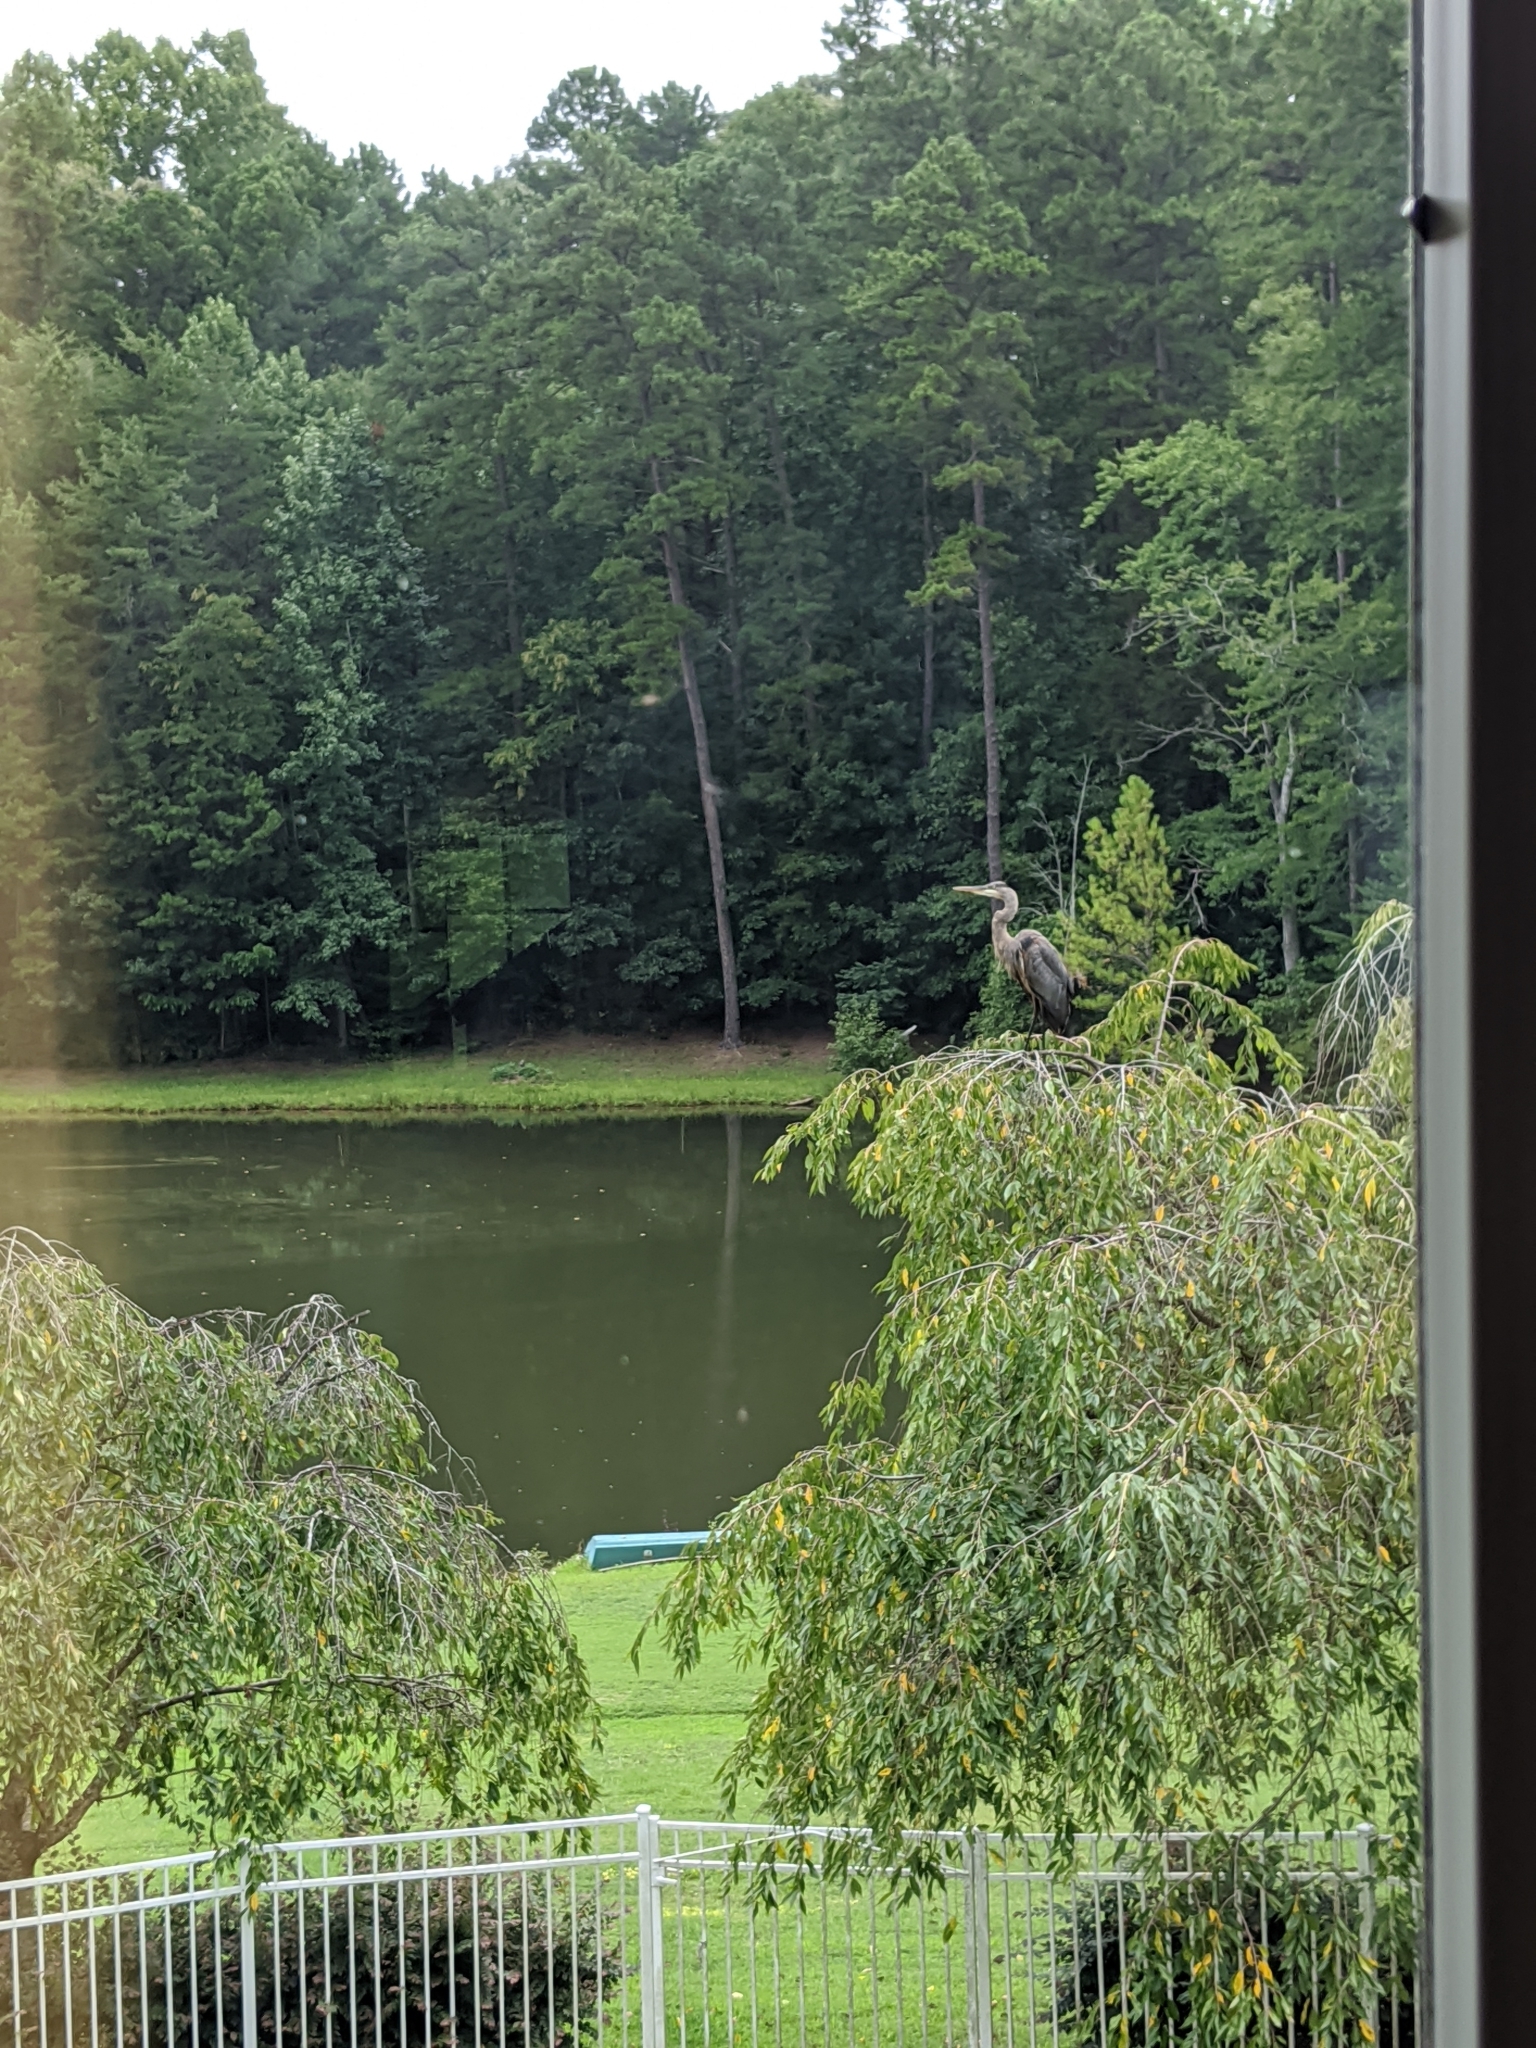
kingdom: Animalia
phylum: Chordata
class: Aves
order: Pelecaniformes
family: Ardeidae
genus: Ardea
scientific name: Ardea herodias
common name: Great blue heron
